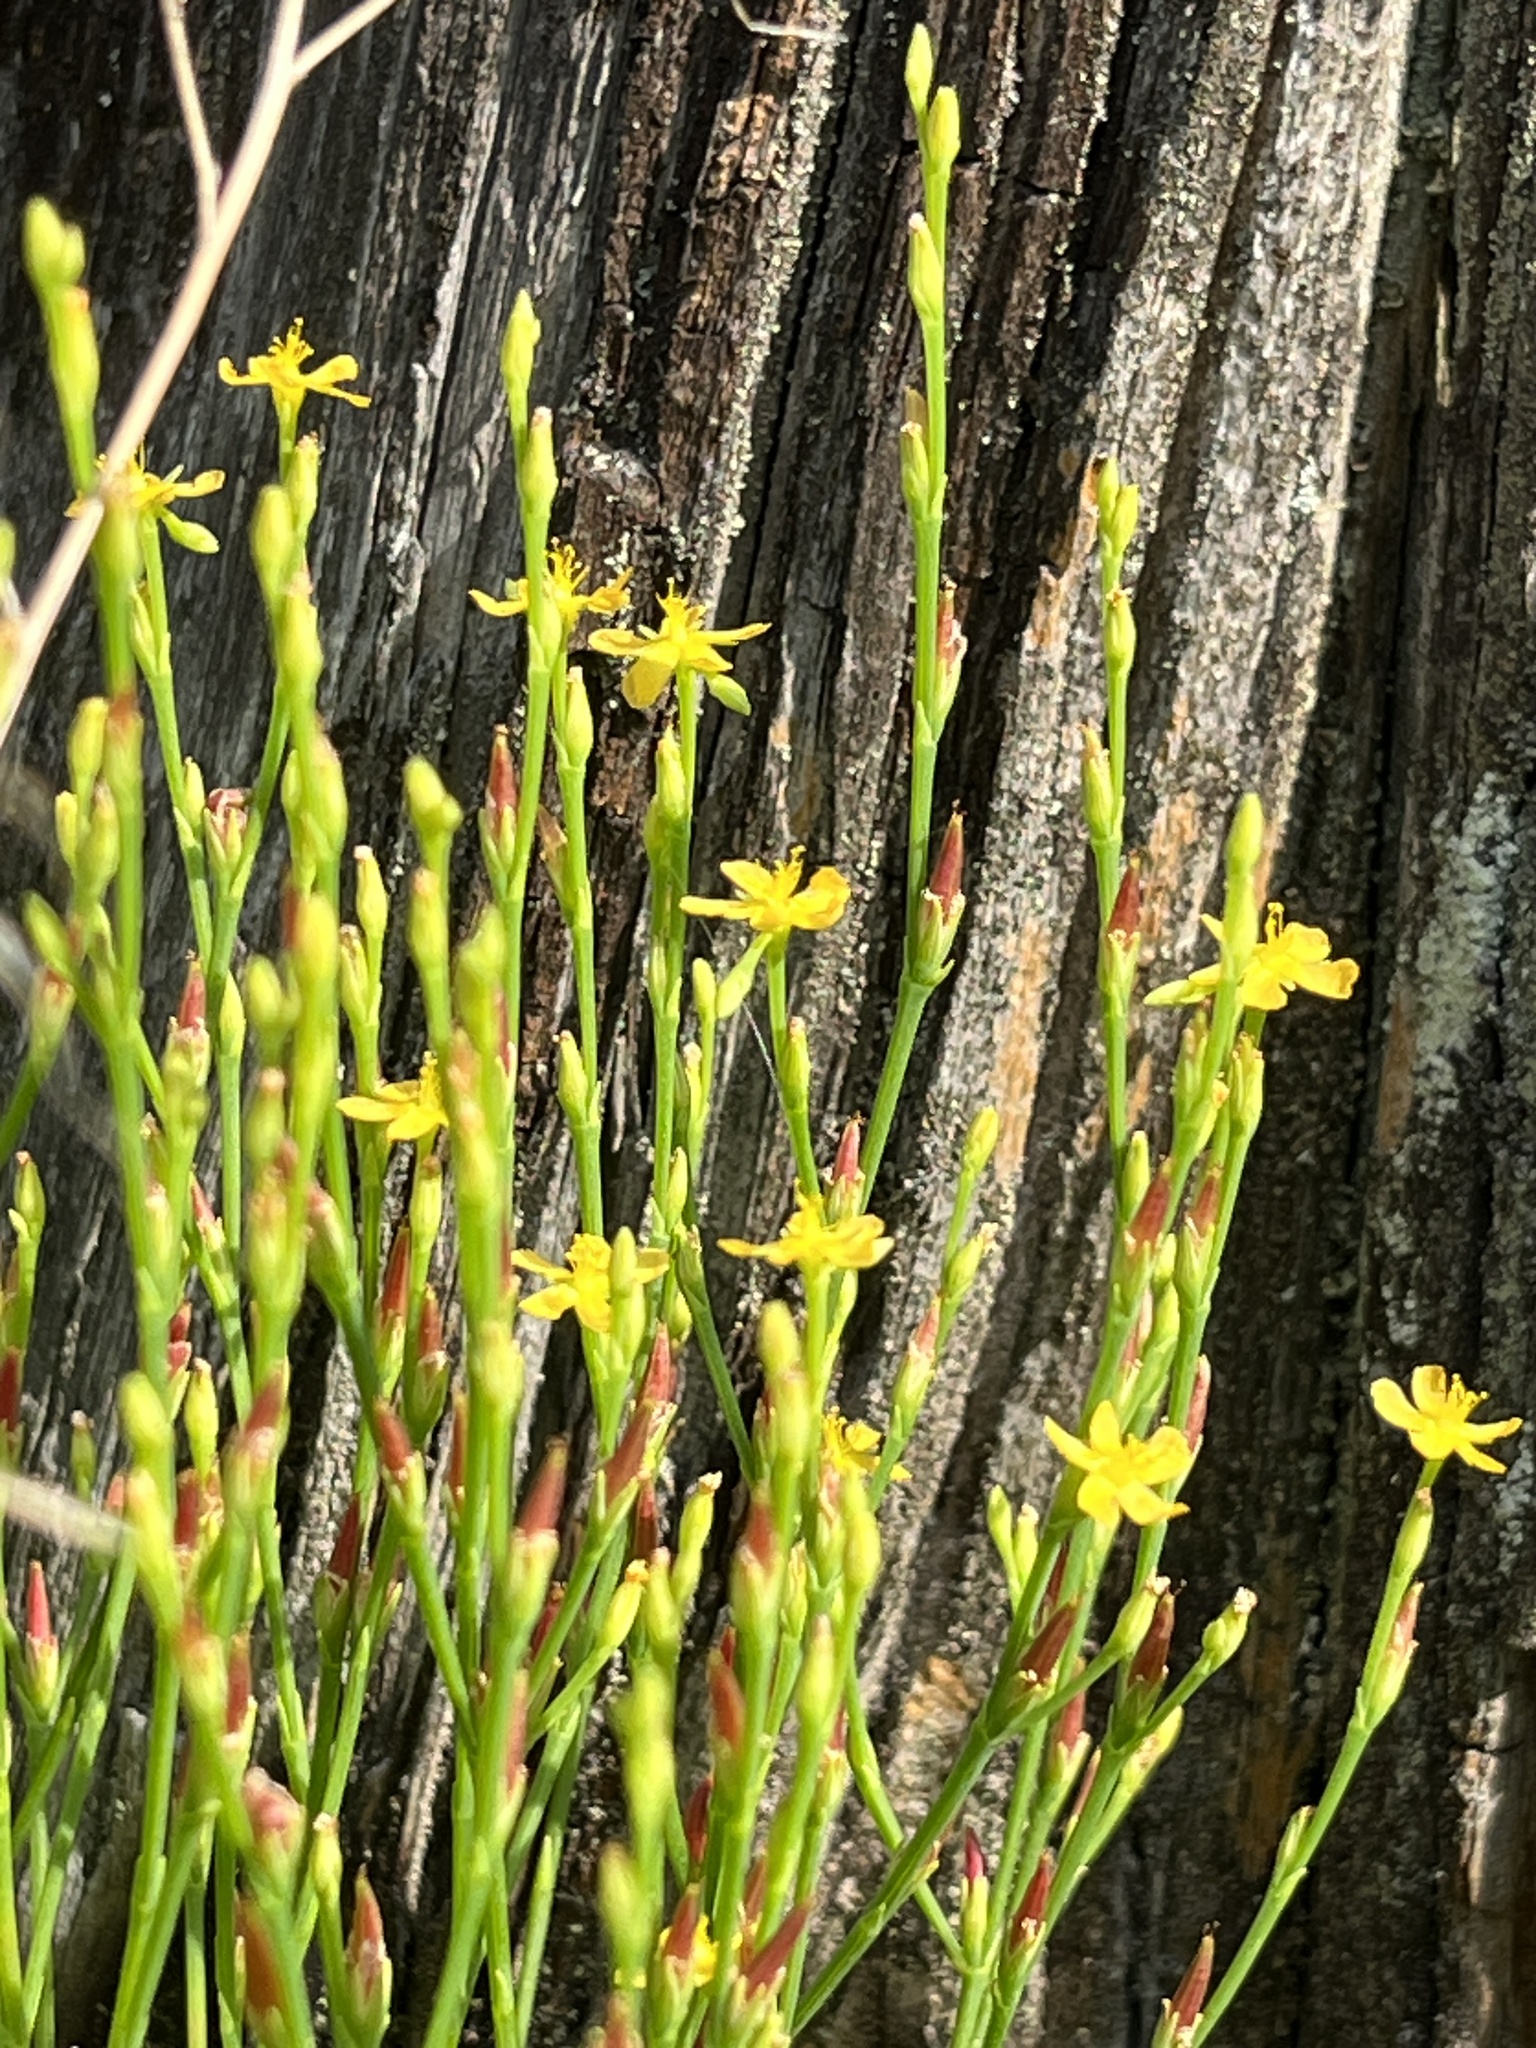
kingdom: Plantae
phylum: Tracheophyta
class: Magnoliopsida
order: Malpighiales
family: Hypericaceae
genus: Hypericum
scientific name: Hypericum gentianoides
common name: Gentian-leaved st. john's-wort
